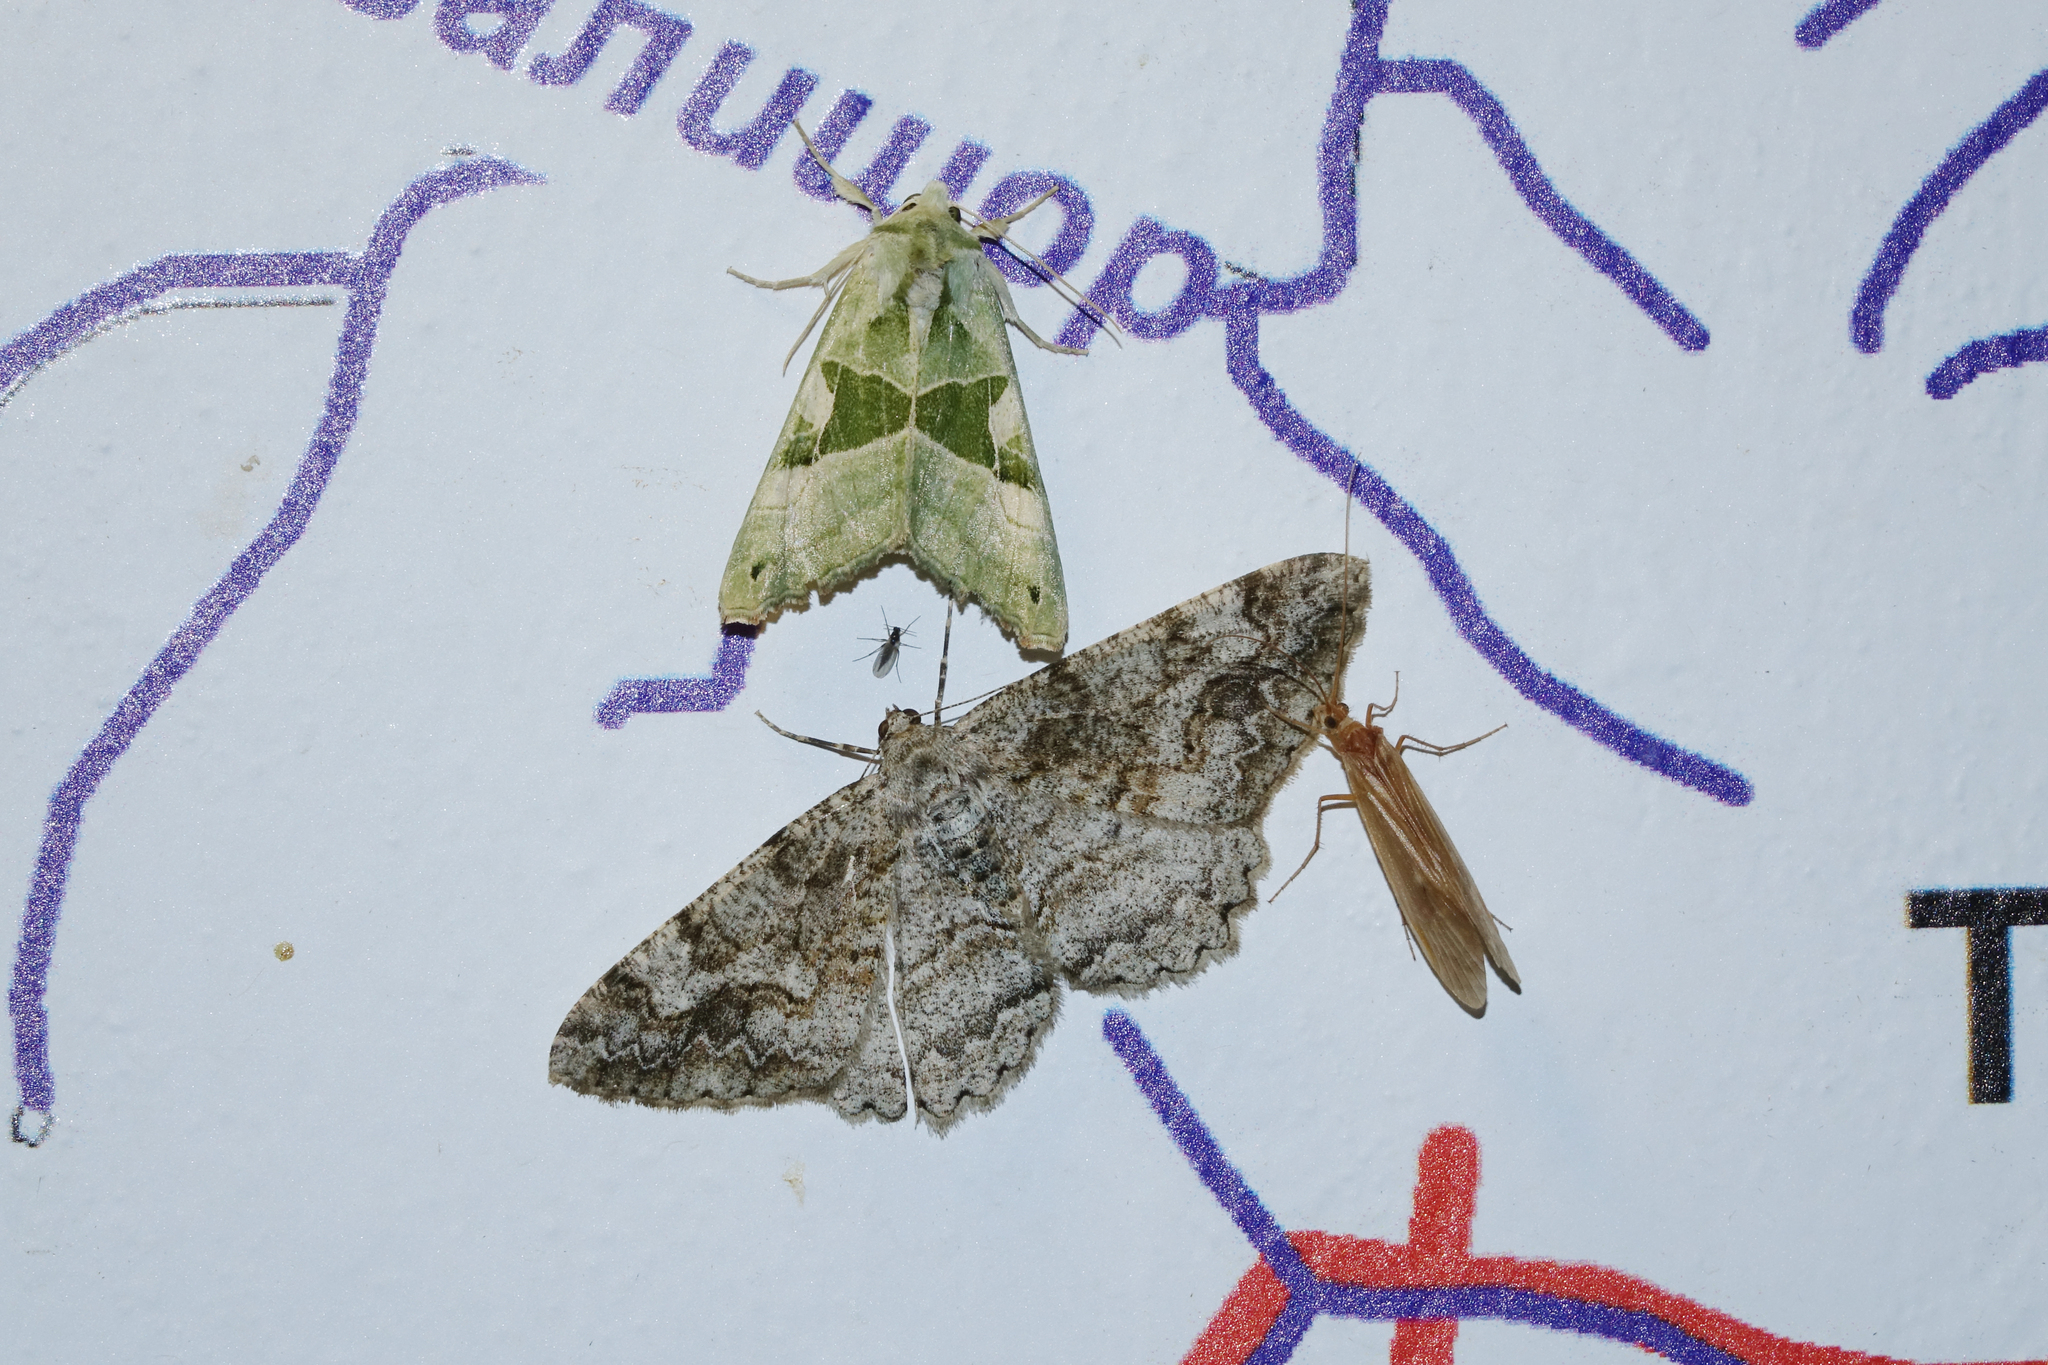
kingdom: Animalia
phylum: Arthropoda
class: Insecta
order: Lepidoptera
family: Noctuidae
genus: Phlogophora
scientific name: Phlogophora scita
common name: Green angle shades
